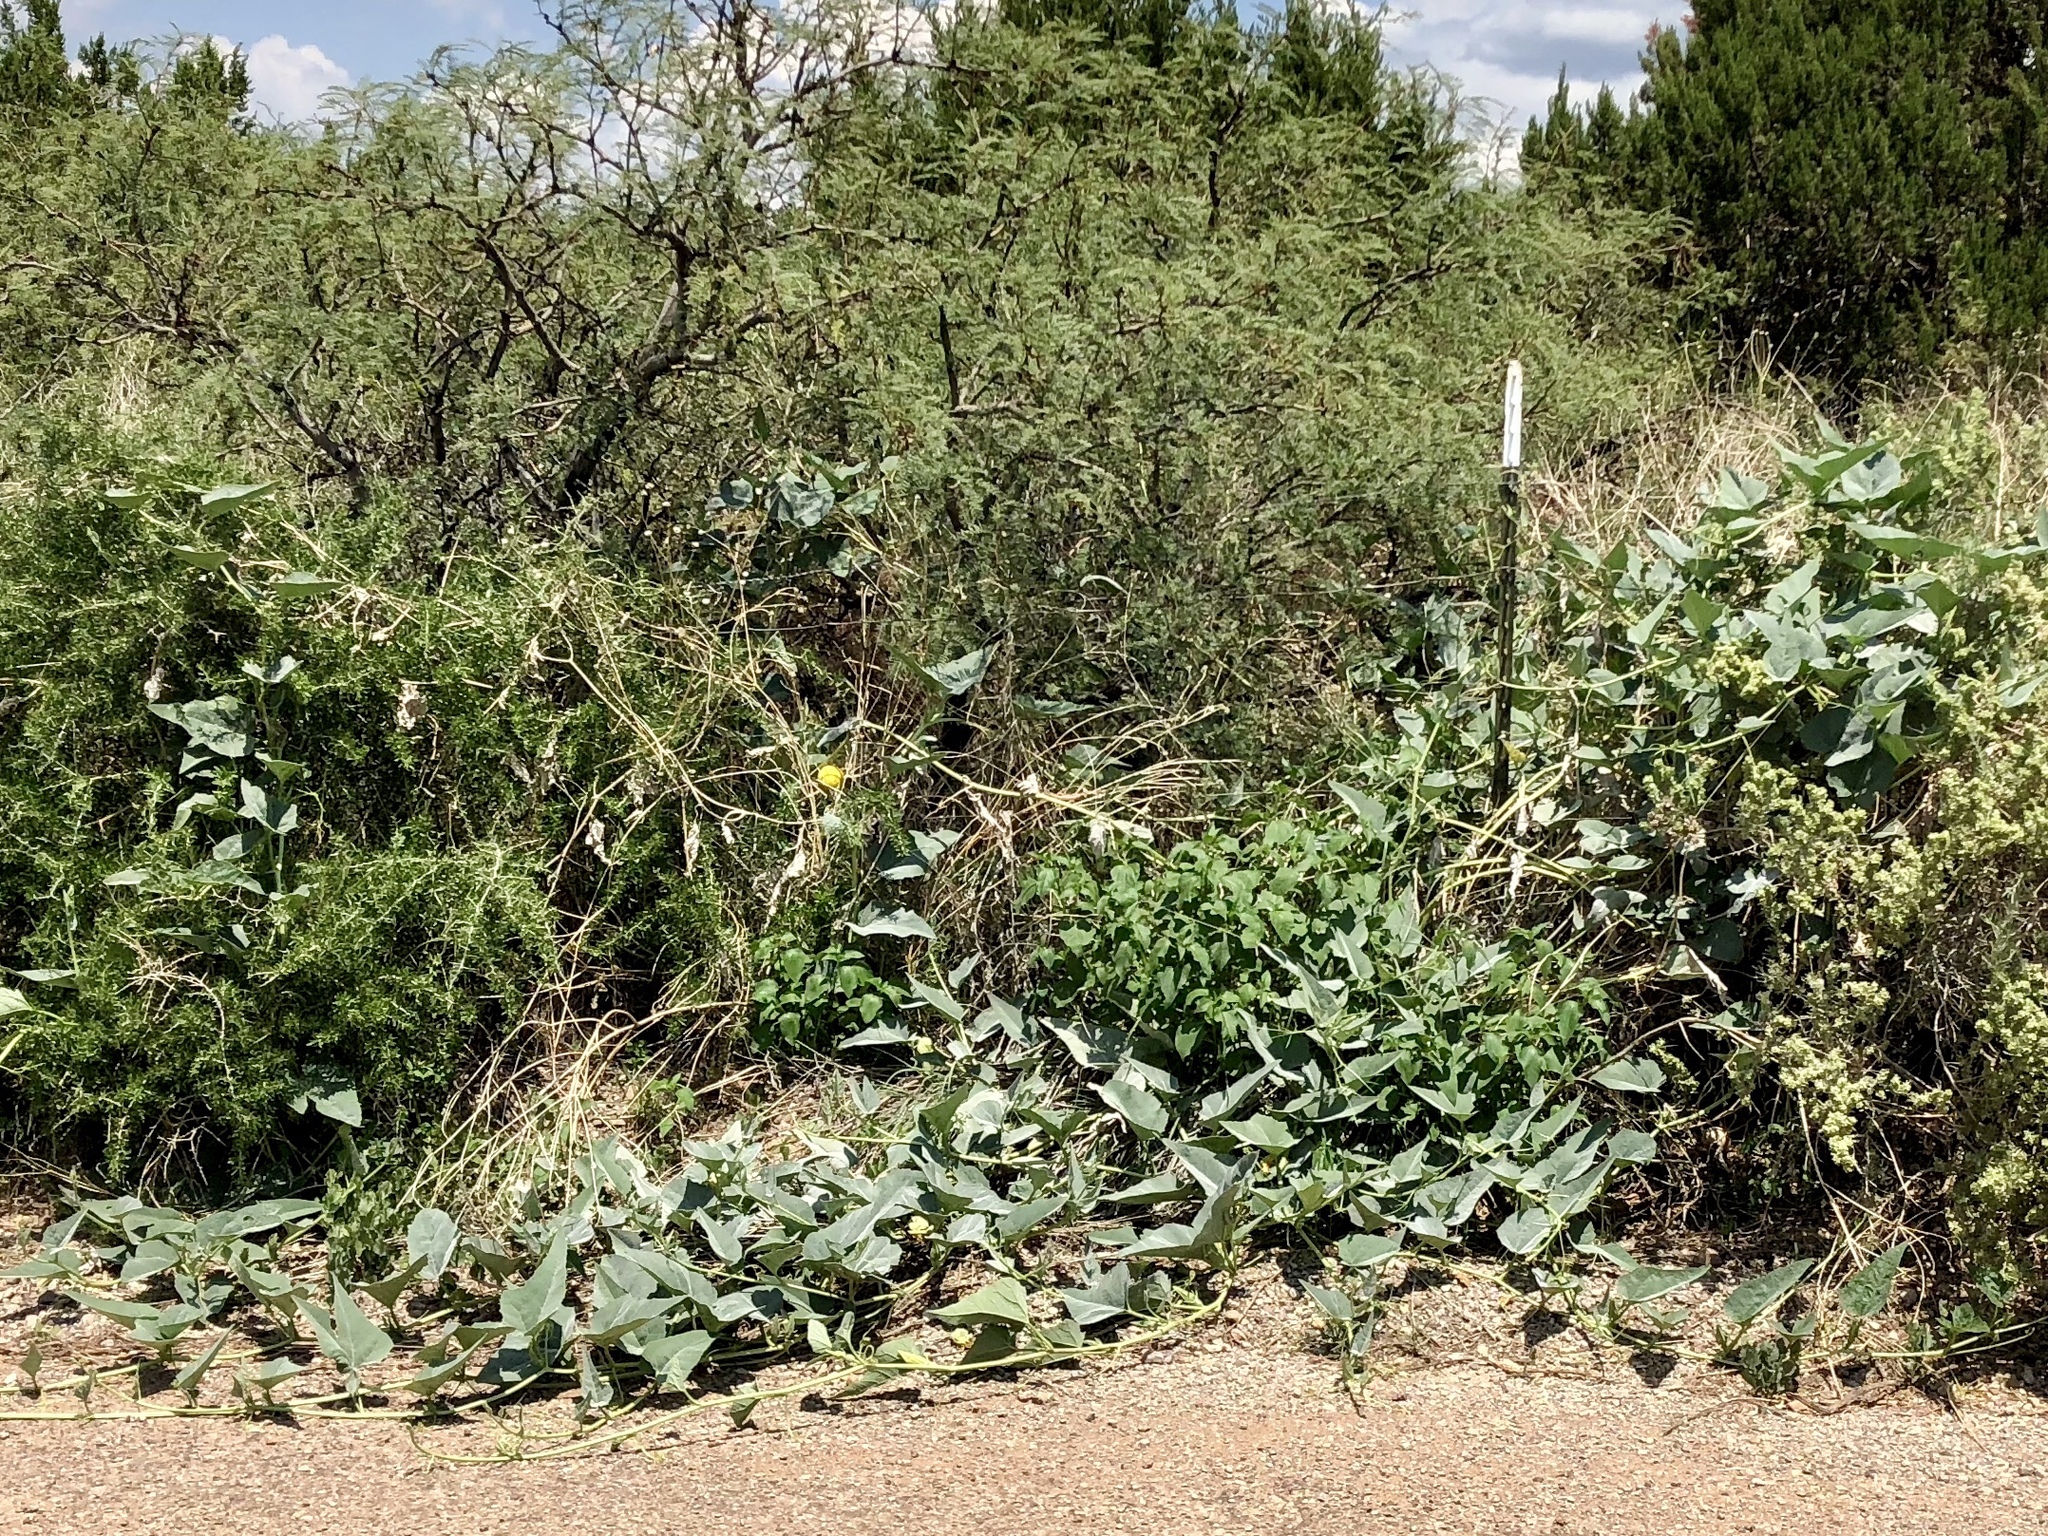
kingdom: Plantae
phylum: Tracheophyta
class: Magnoliopsida
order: Cucurbitales
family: Cucurbitaceae
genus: Cucurbita
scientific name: Cucurbita foetidissima
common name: Buffalo gourd
